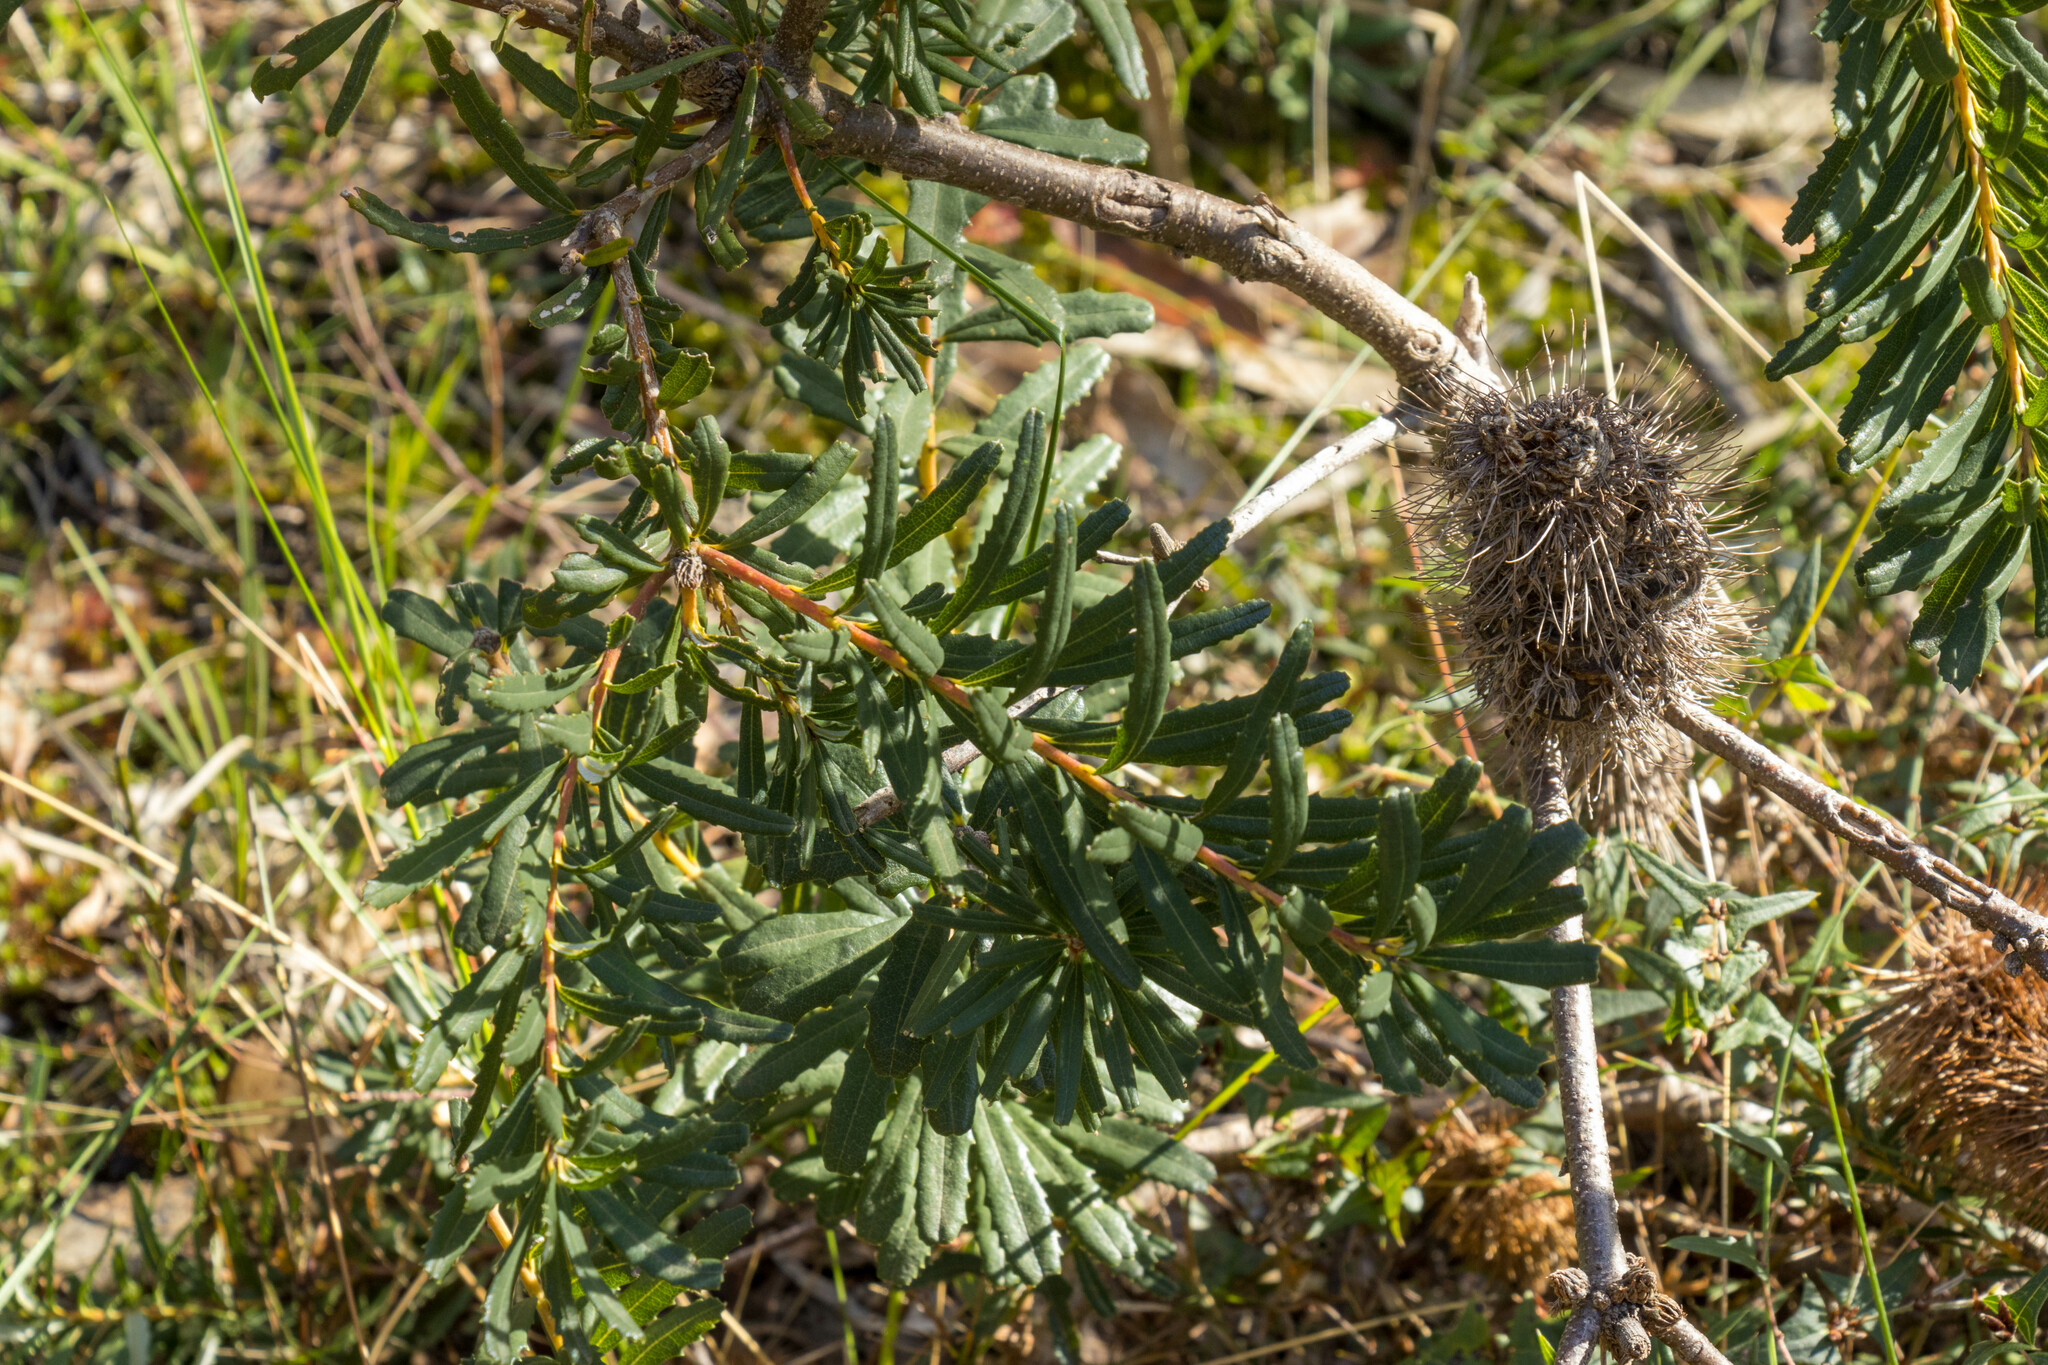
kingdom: Plantae
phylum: Tracheophyta
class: Magnoliopsida
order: Proteales
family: Proteaceae
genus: Banksia
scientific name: Banksia marginata
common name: Silver banksia
